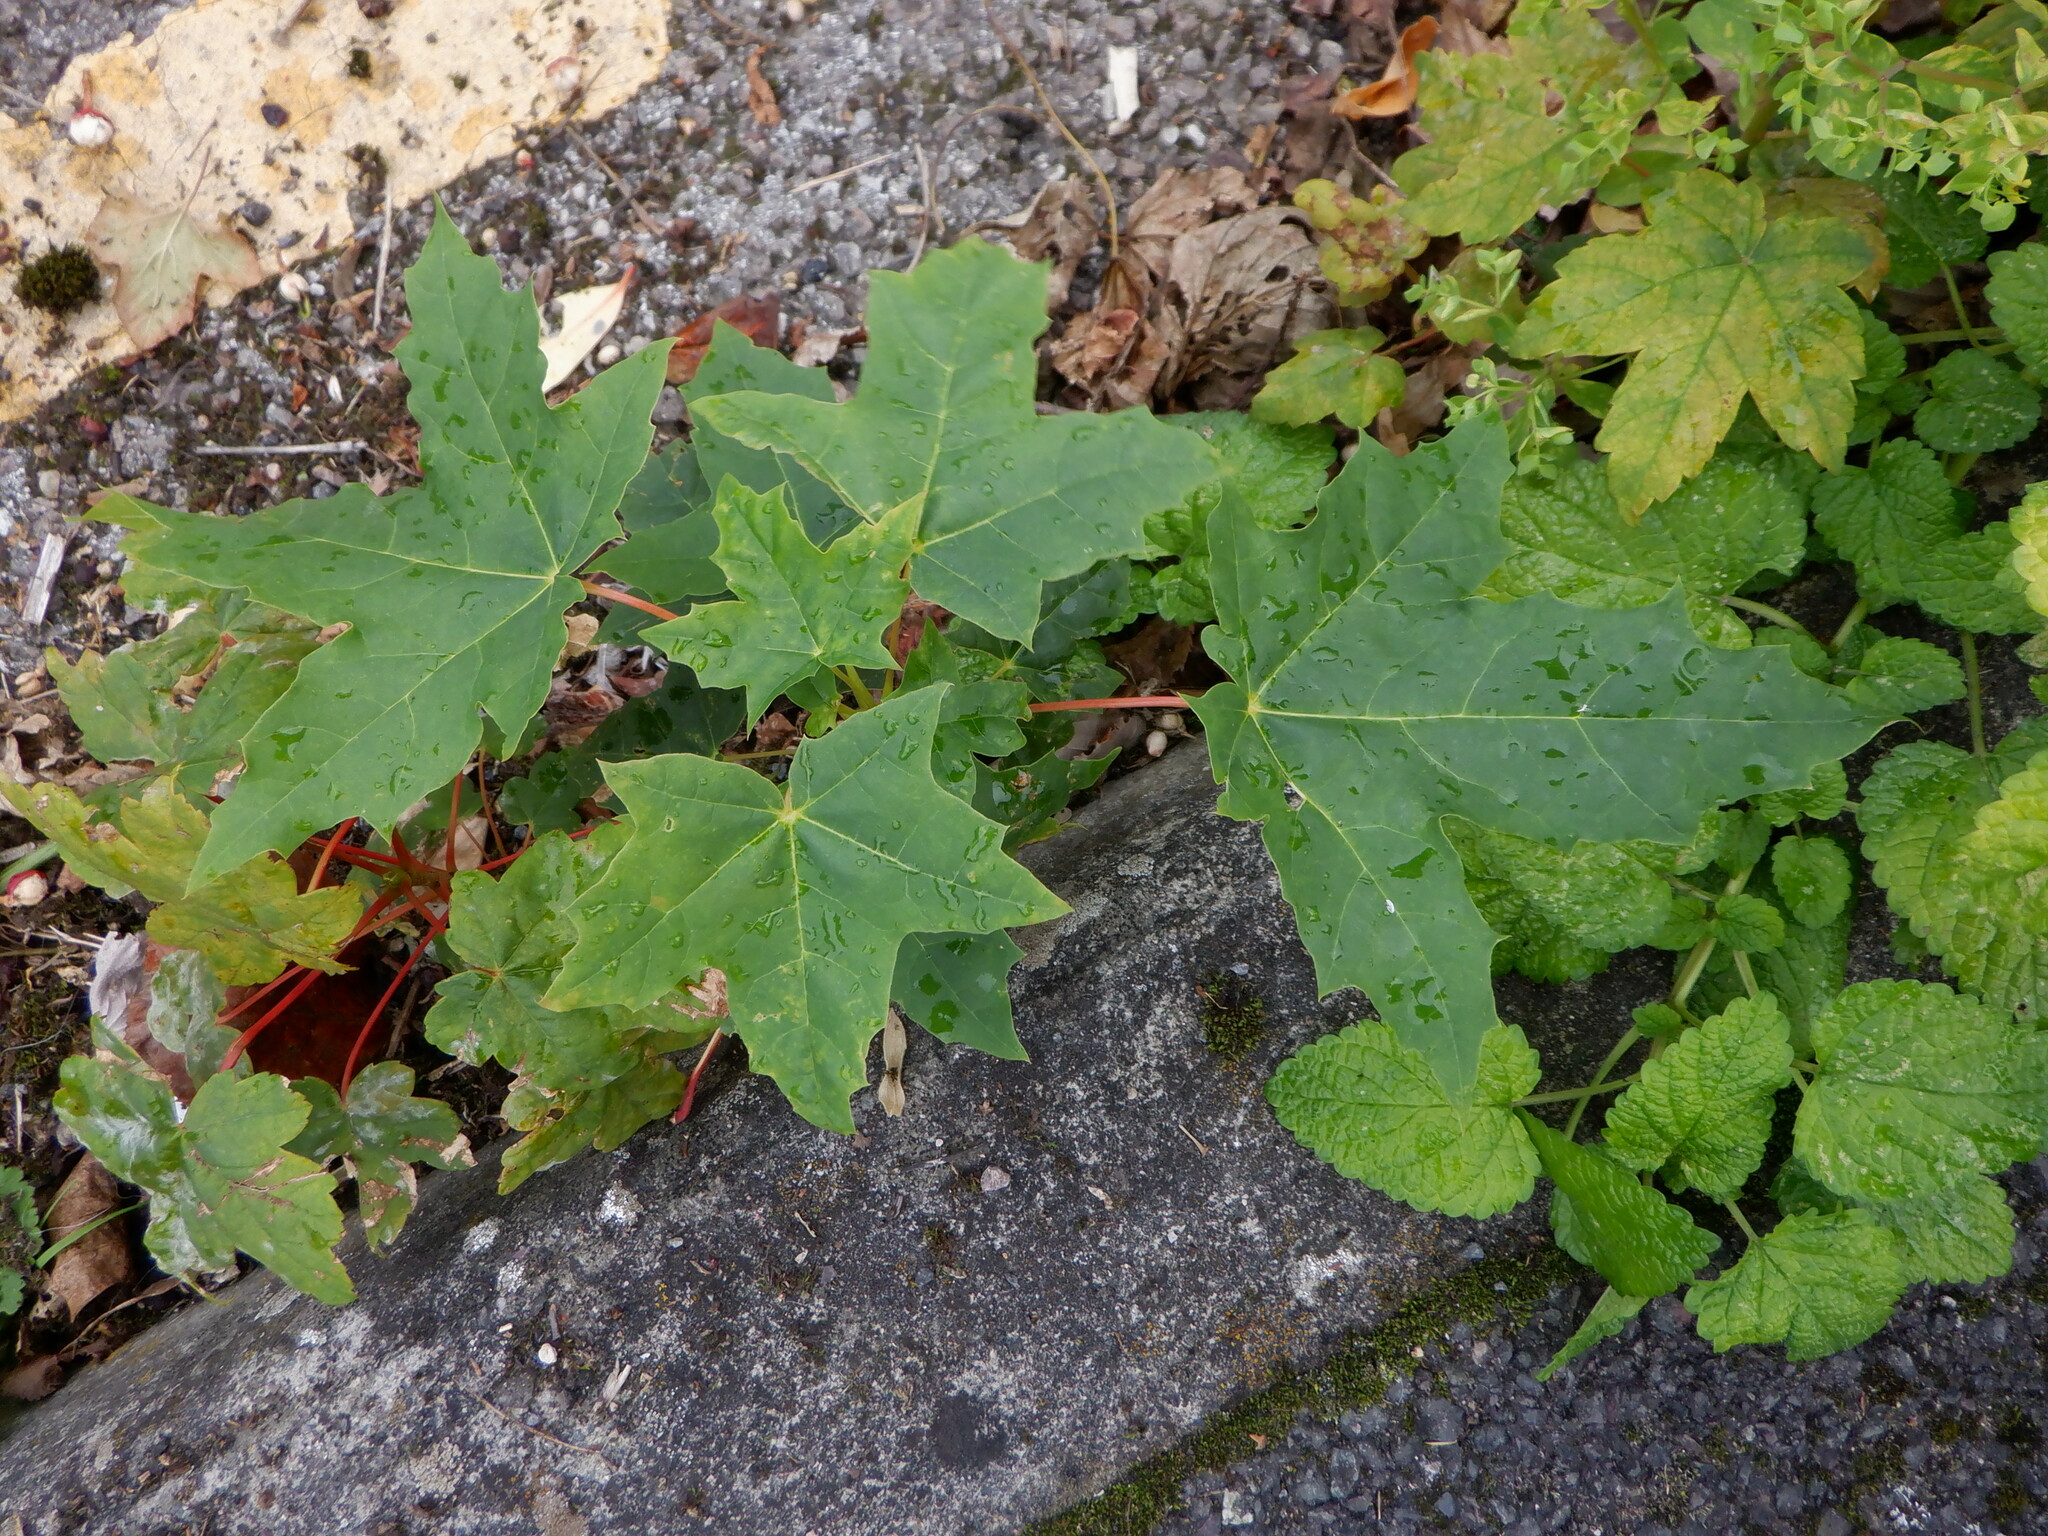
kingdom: Plantae
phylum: Tracheophyta
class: Magnoliopsida
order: Sapindales
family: Sapindaceae
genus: Acer
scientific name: Acer platanoides
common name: Norway maple
